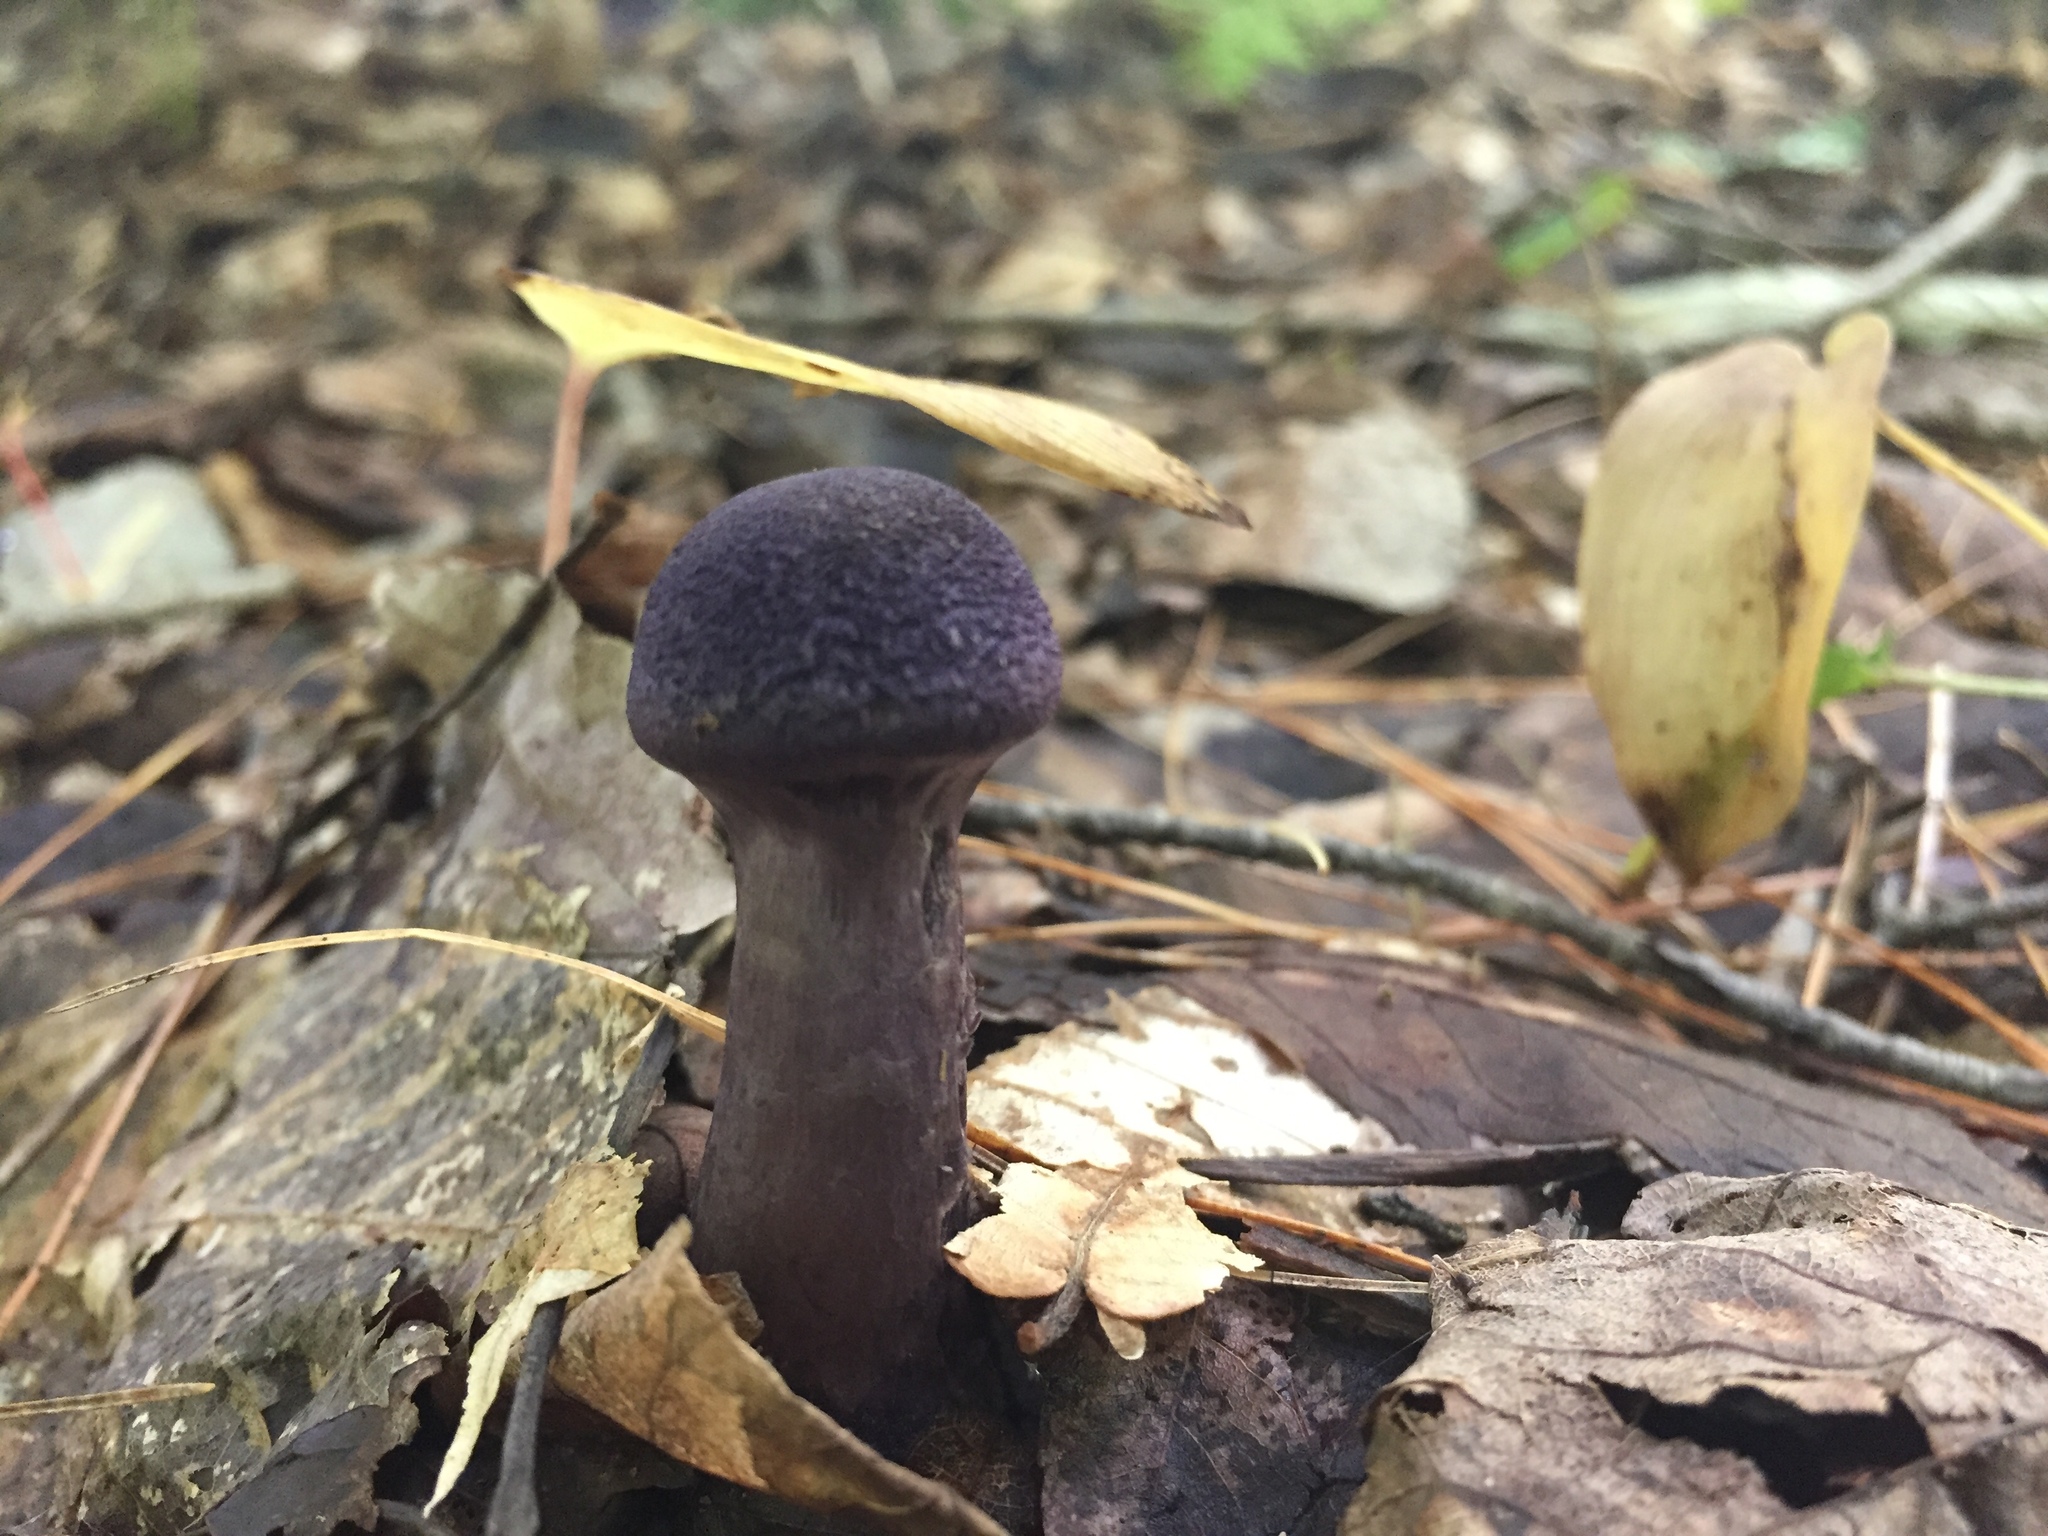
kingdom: Fungi
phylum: Basidiomycota
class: Agaricomycetes
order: Agaricales
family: Cortinariaceae
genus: Cortinarius
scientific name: Cortinarius violaceus
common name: Violet webcap
